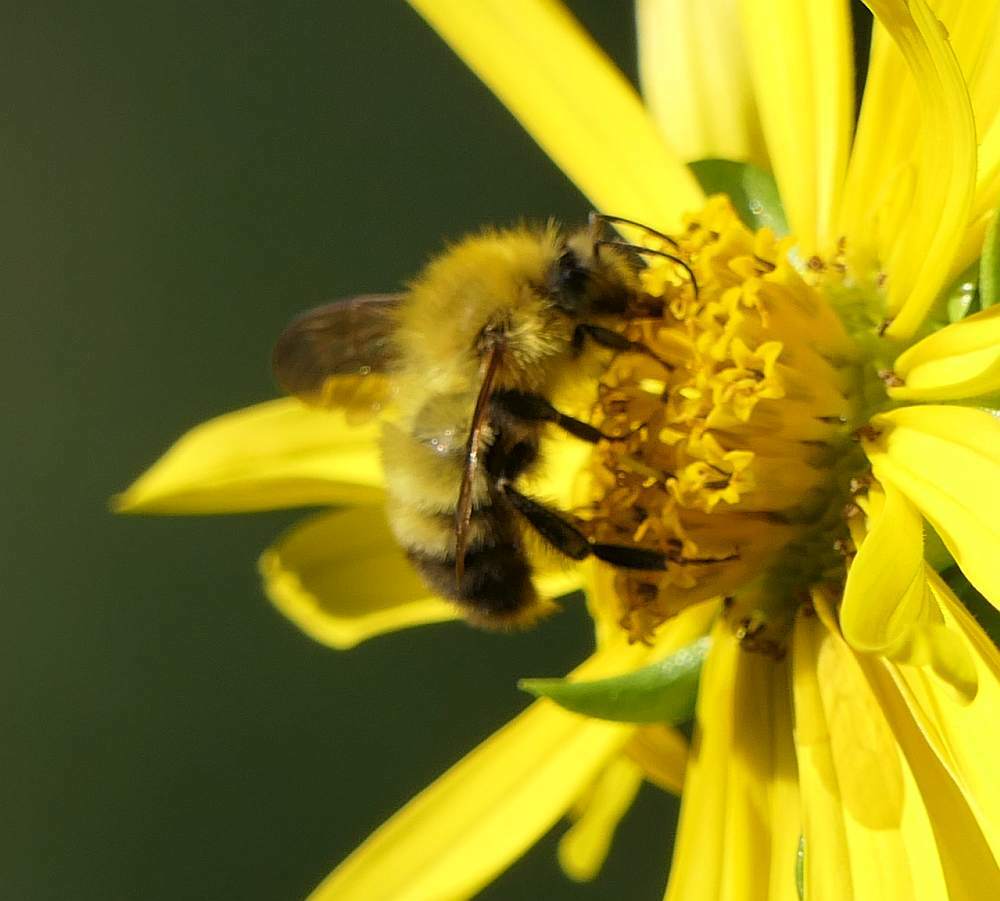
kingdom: Animalia
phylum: Arthropoda
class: Insecta
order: Hymenoptera
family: Apidae
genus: Bombus
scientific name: Bombus perplexus
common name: Confusing bumble bee
